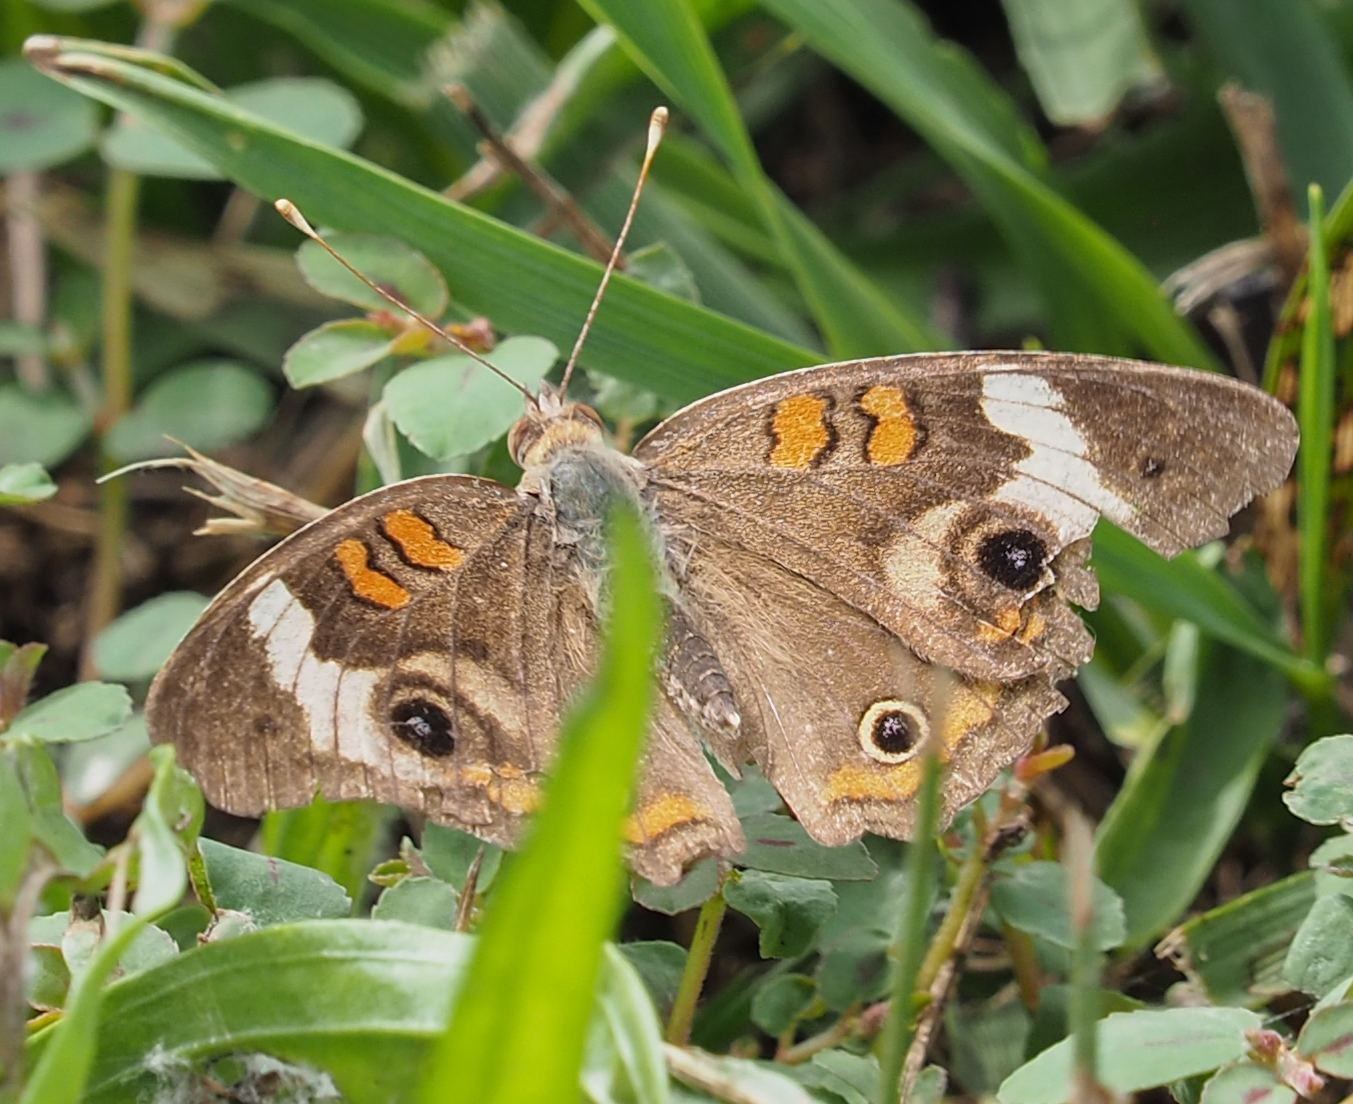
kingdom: Animalia
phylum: Arthropoda
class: Insecta
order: Lepidoptera
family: Nymphalidae
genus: Junonia
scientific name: Junonia coenia
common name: Common buckeye
